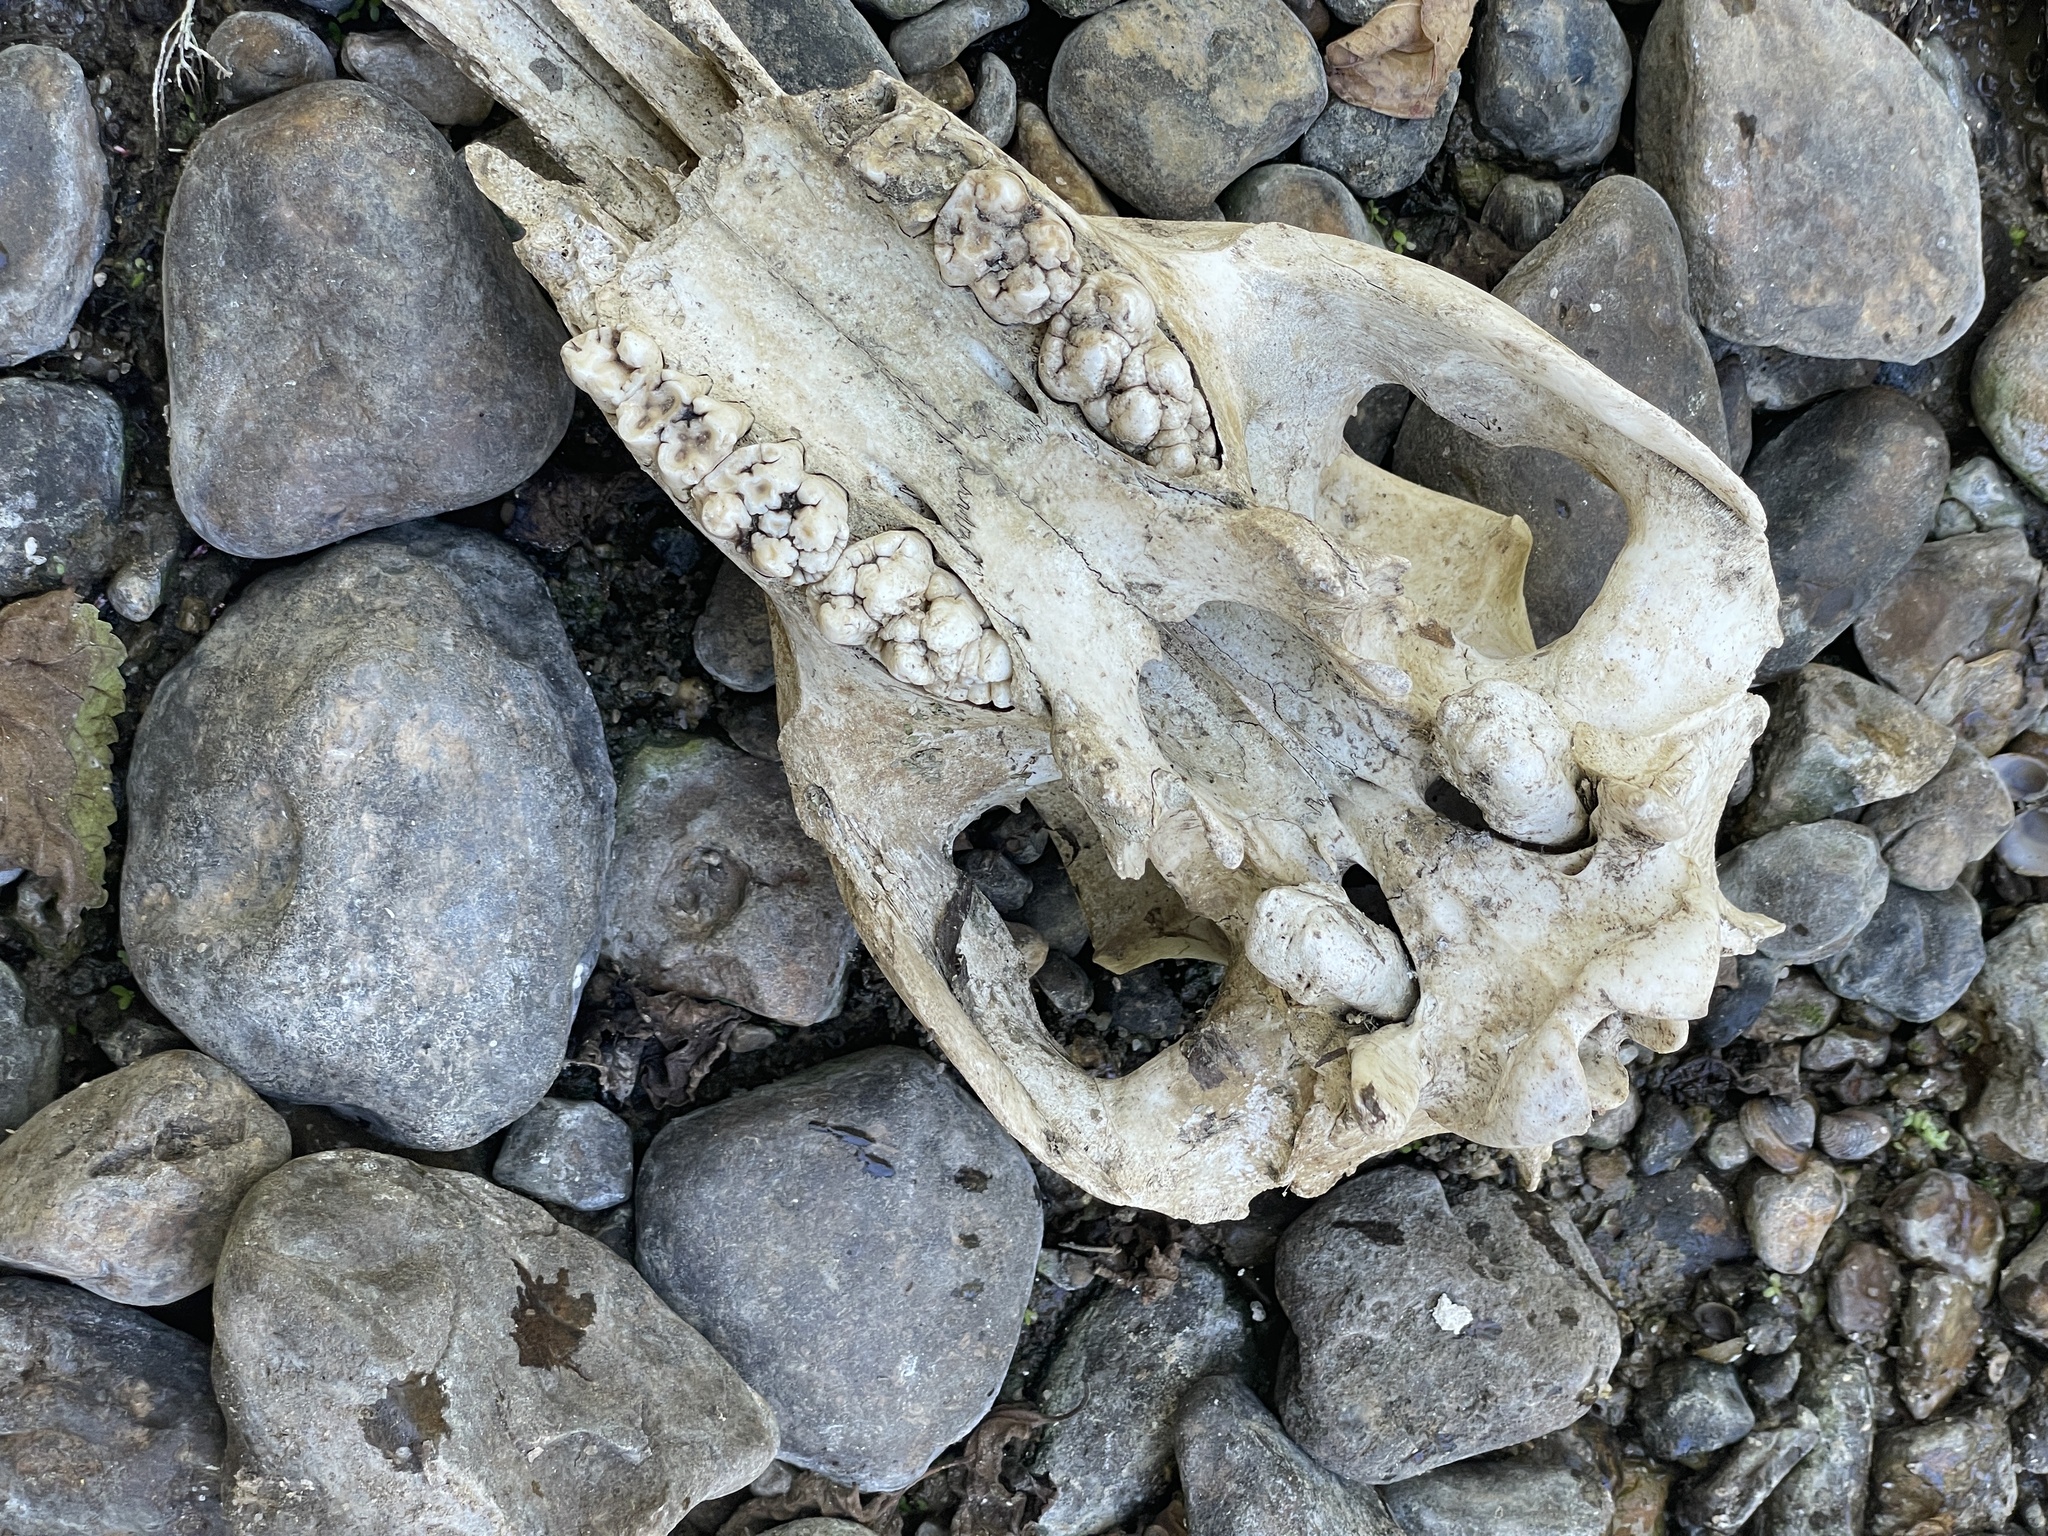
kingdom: Animalia
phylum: Chordata
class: Mammalia
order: Artiodactyla
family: Suidae
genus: Sus
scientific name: Sus scrofa
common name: Wild boar
